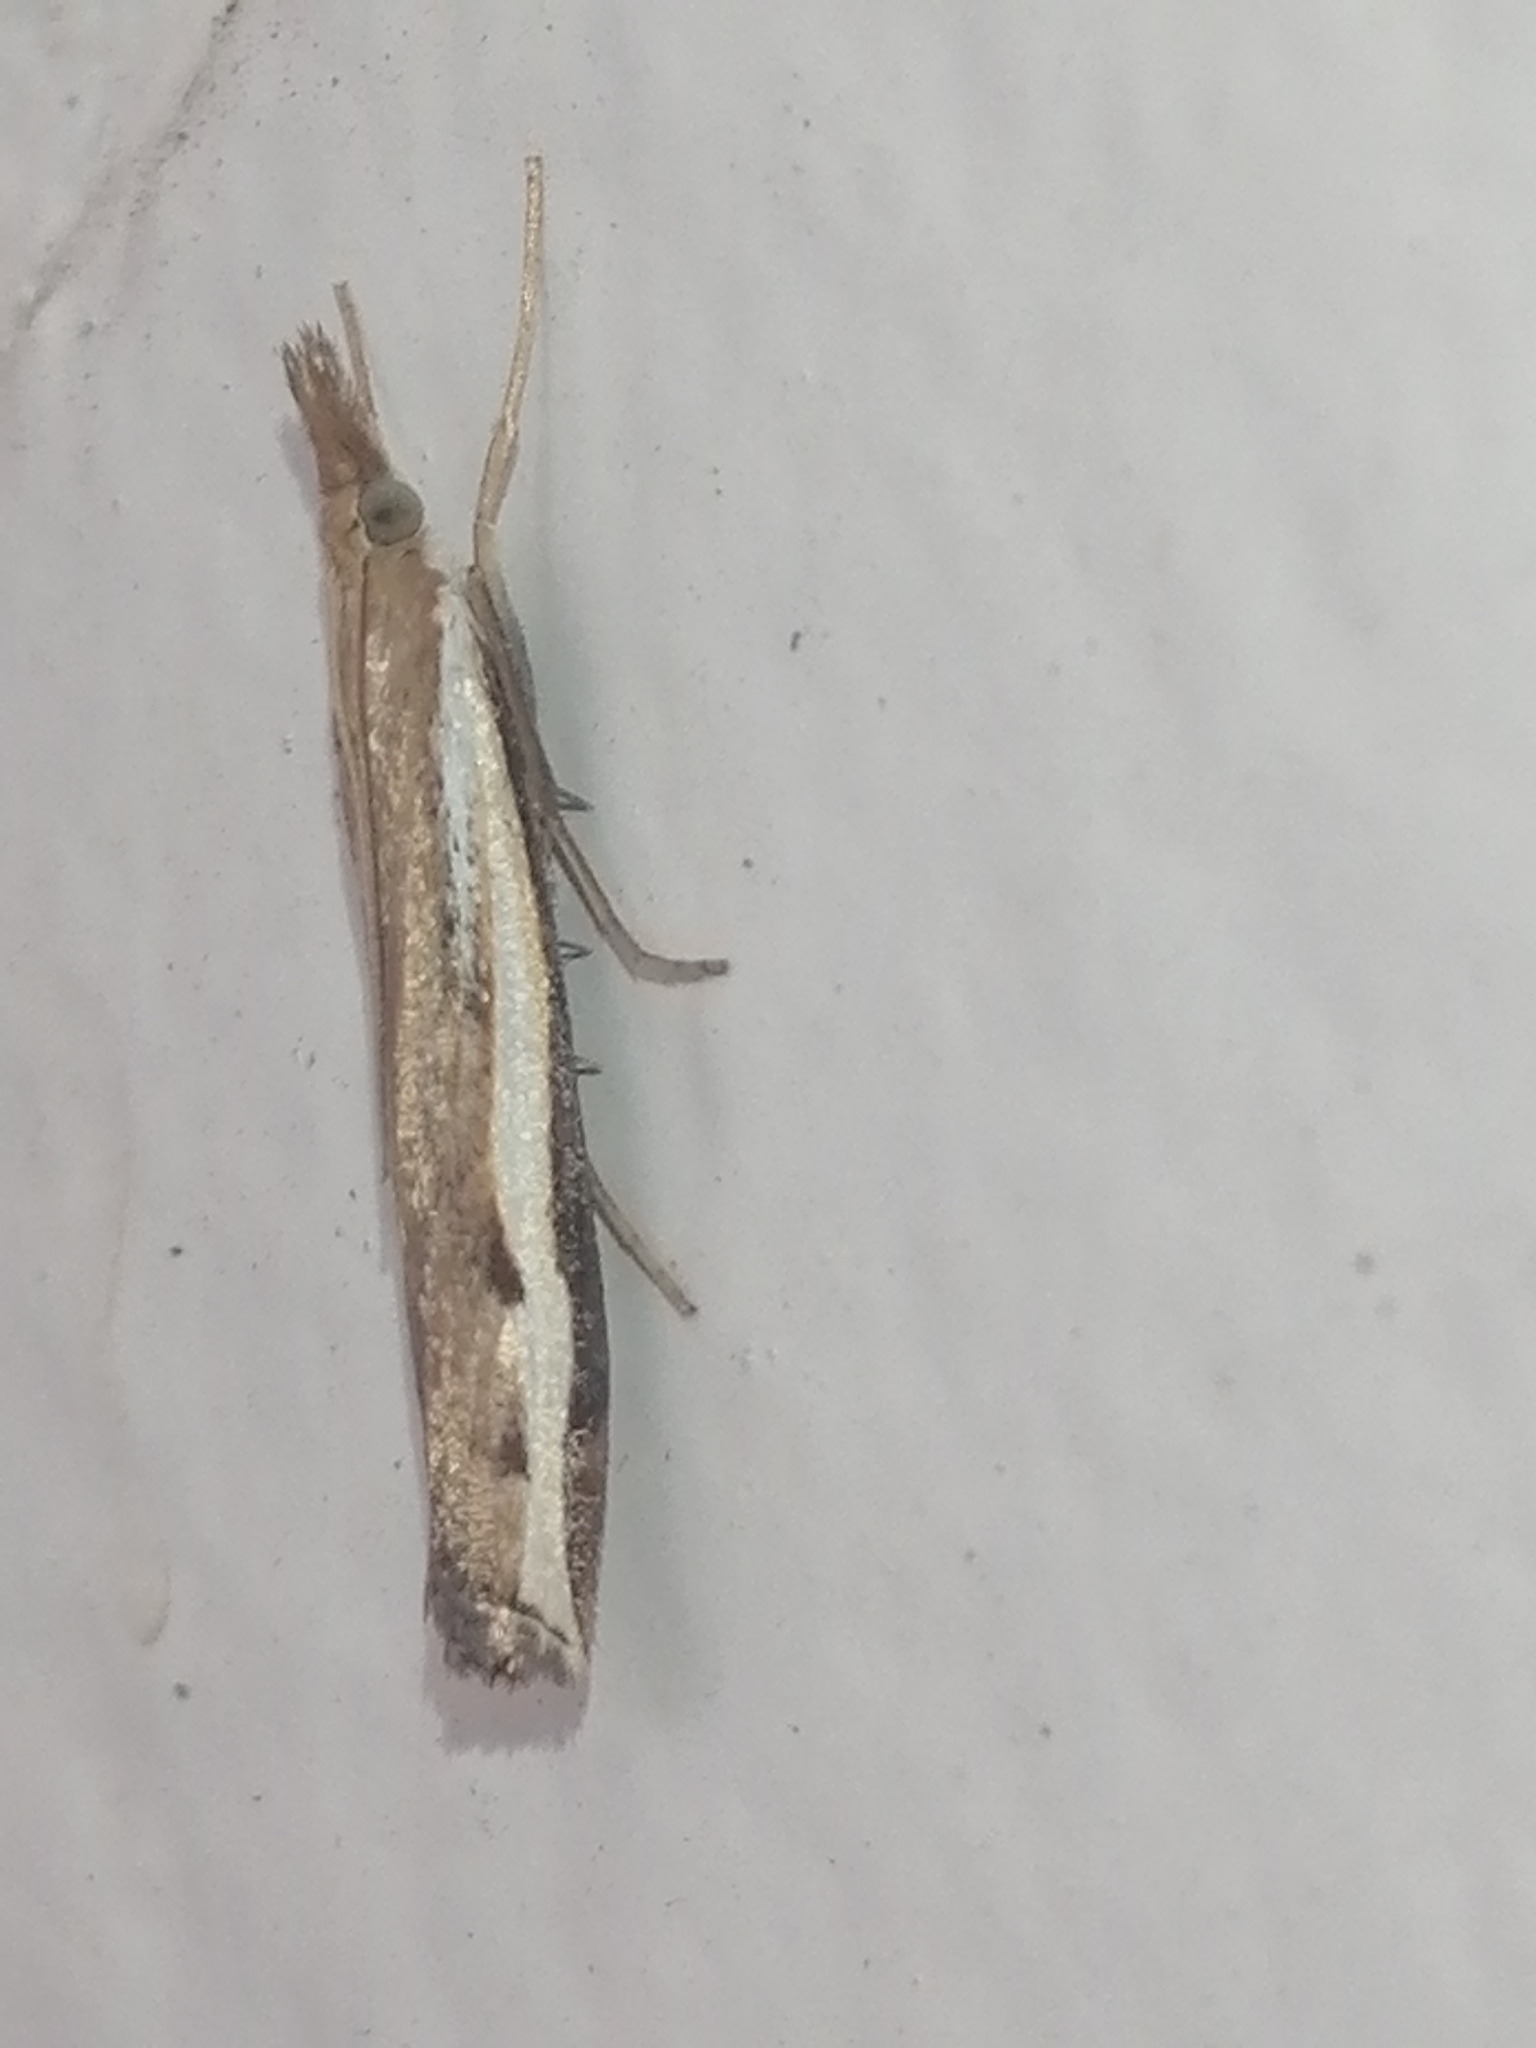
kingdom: Animalia
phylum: Arthropoda
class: Insecta
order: Lepidoptera
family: Crambidae
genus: Orocrambus
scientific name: Orocrambus flexuosellus
